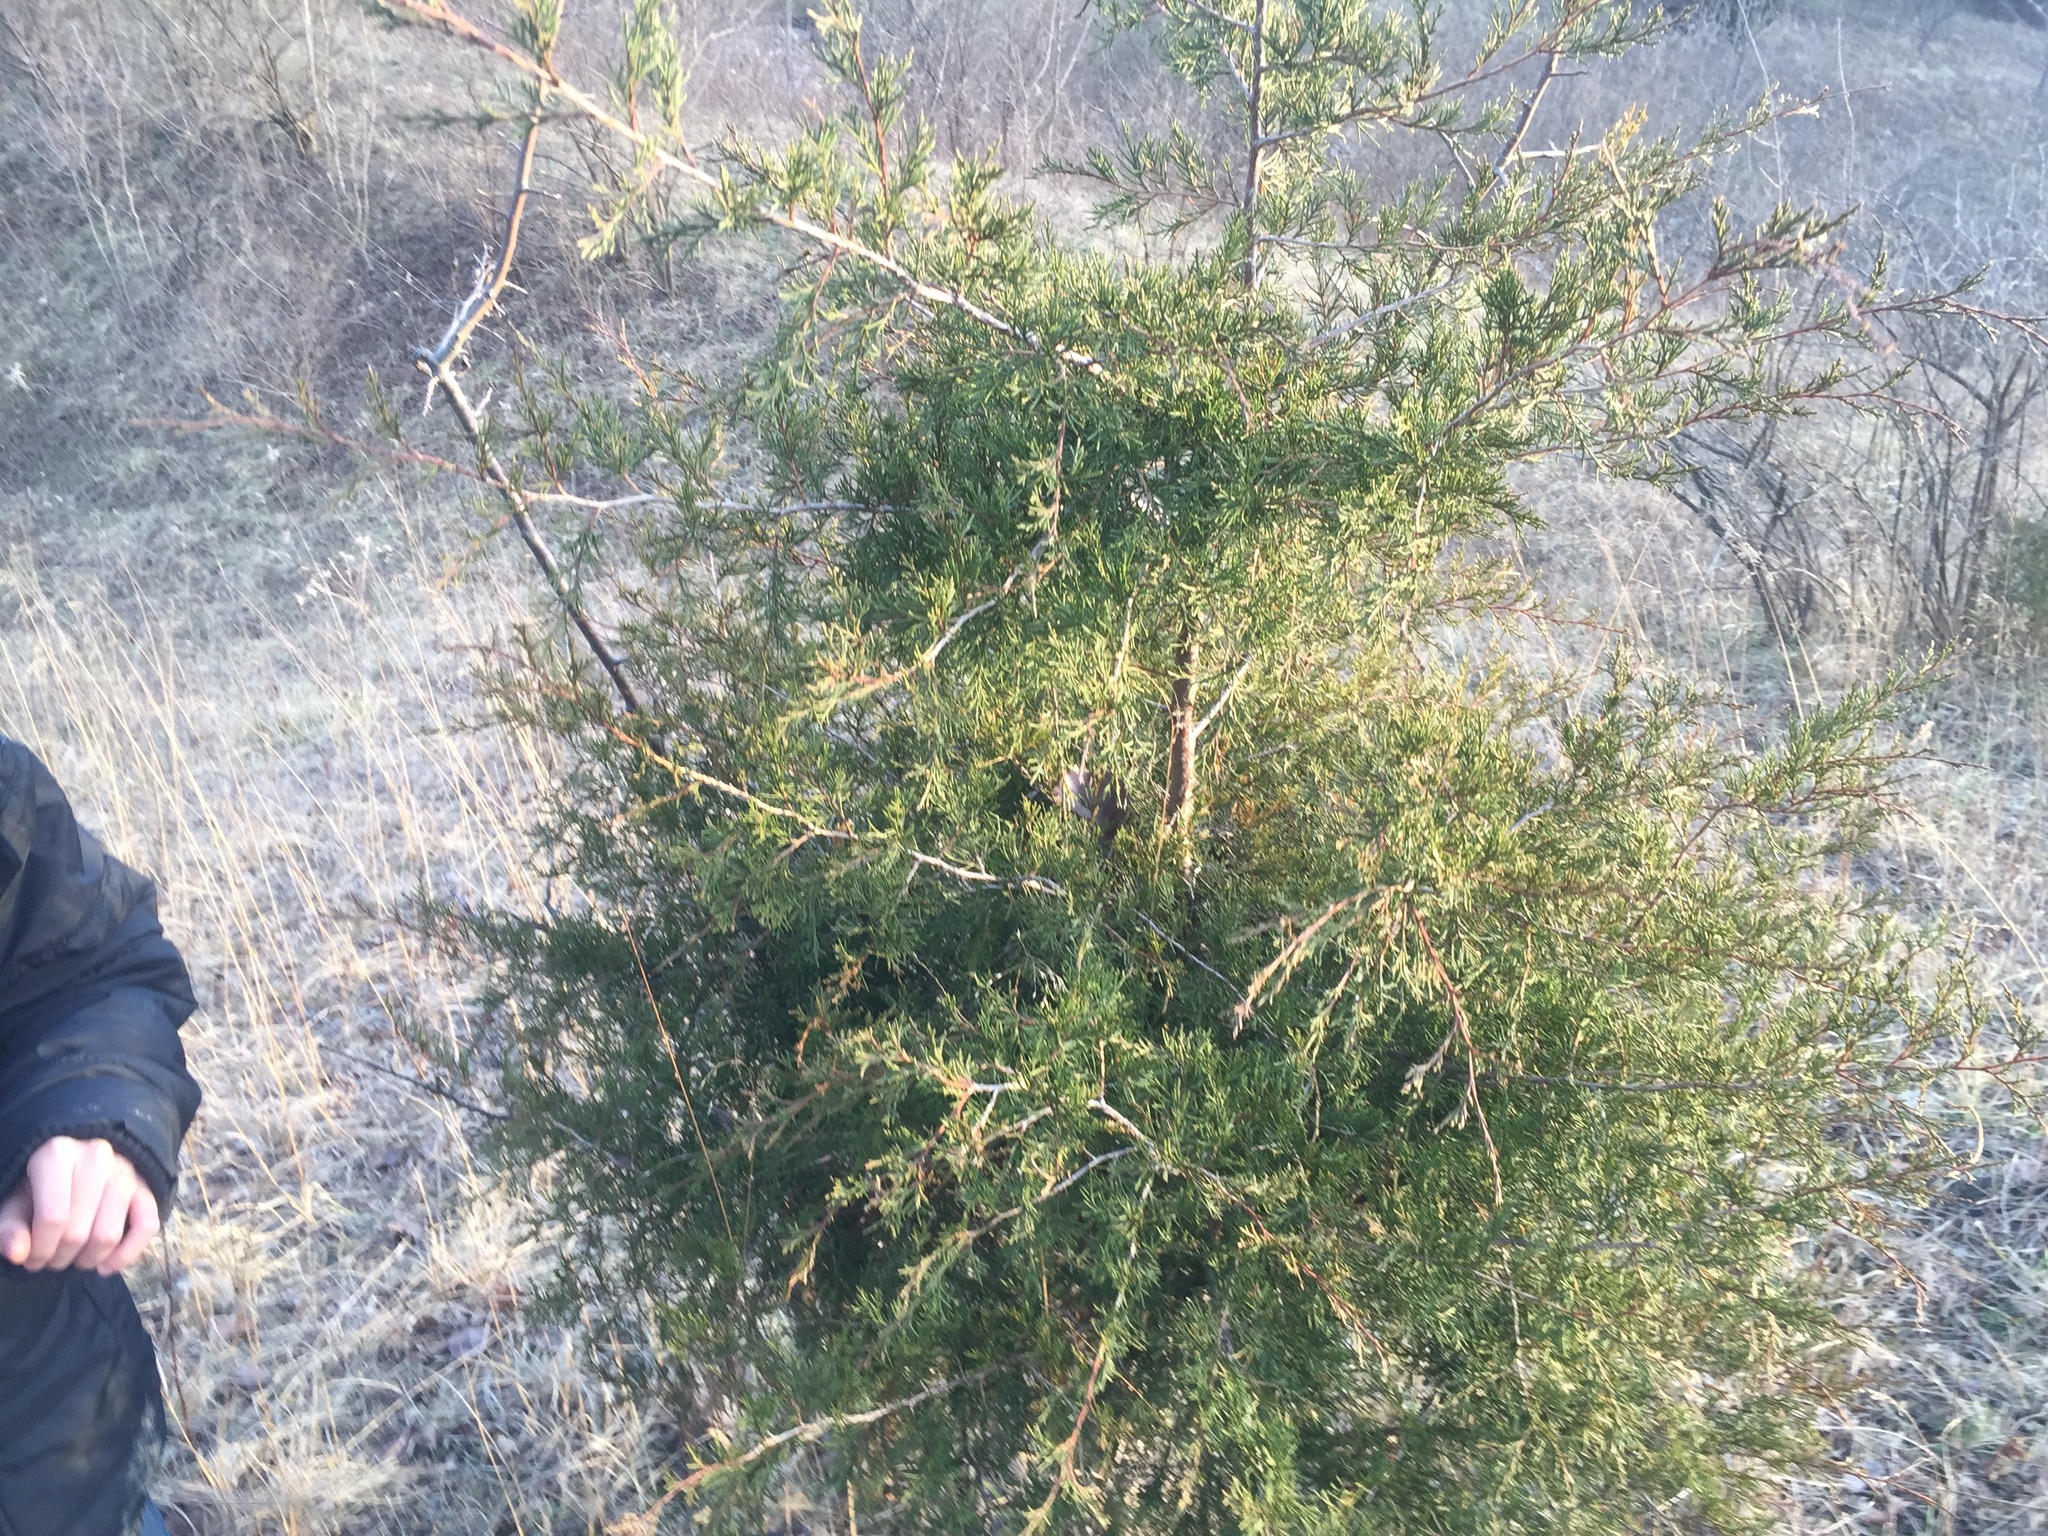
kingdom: Plantae
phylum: Tracheophyta
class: Pinopsida
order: Pinales
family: Cupressaceae
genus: Juniperus
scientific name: Juniperus virginiana
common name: Red juniper
